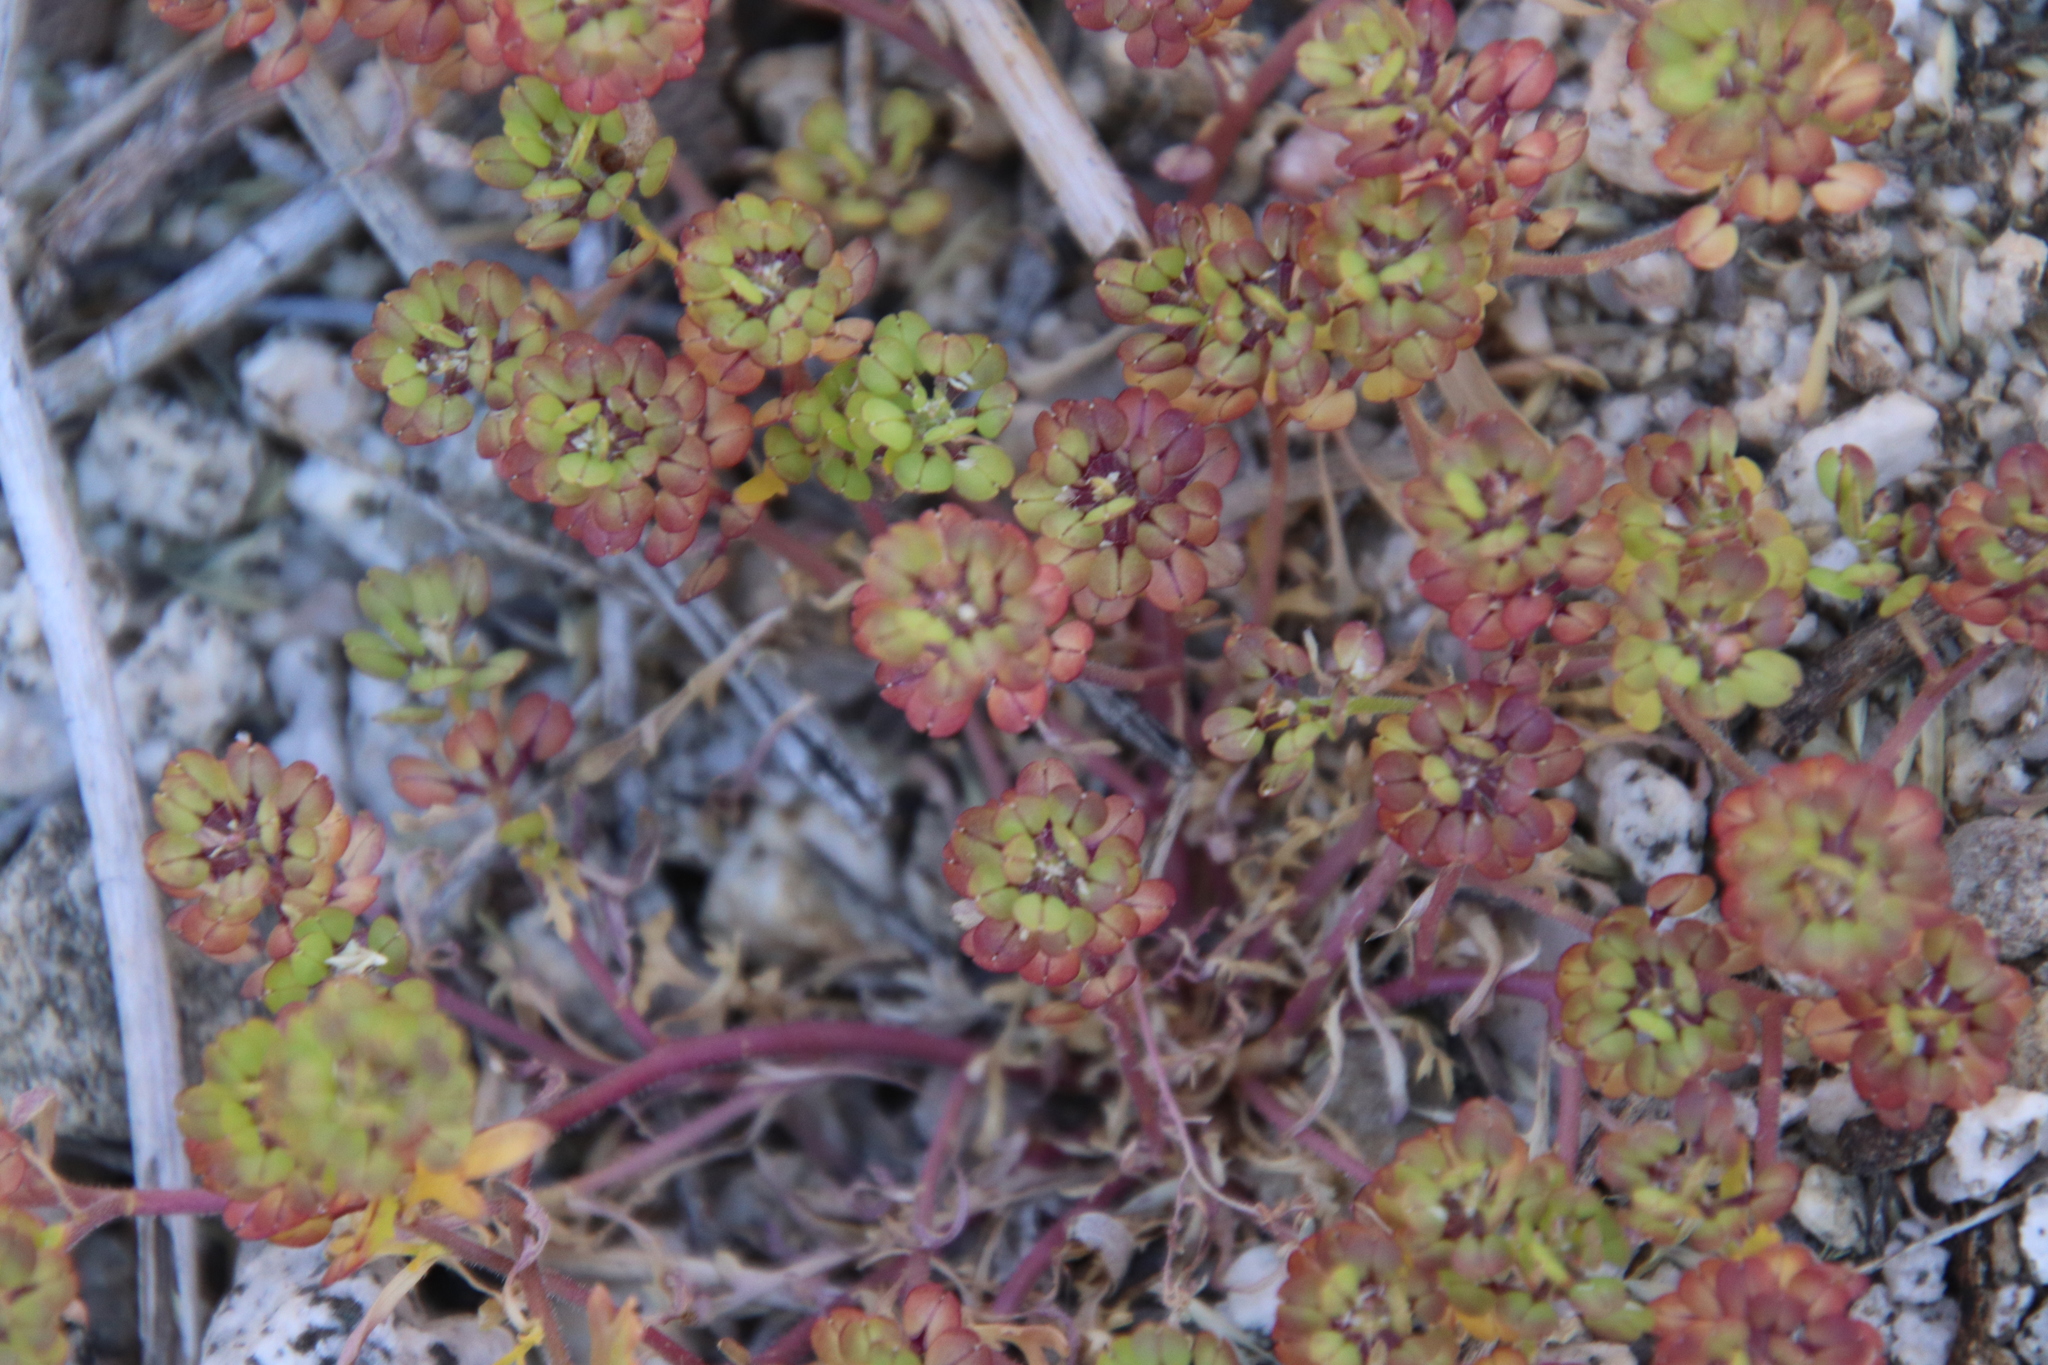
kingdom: Plantae
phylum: Tracheophyta
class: Magnoliopsida
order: Brassicales
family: Brassicaceae
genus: Lepidium
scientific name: Lepidium lasiocarpum
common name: Hairy-pod pepperwort
